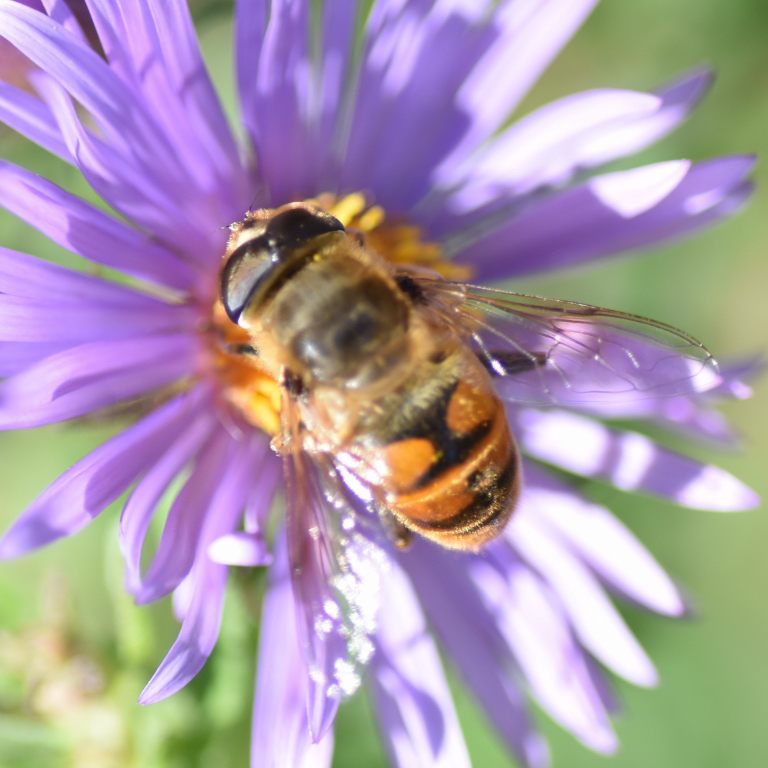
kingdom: Animalia
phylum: Arthropoda
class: Insecta
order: Diptera
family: Syrphidae
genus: Eristalis
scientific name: Eristalis tenax
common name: Drone fly
